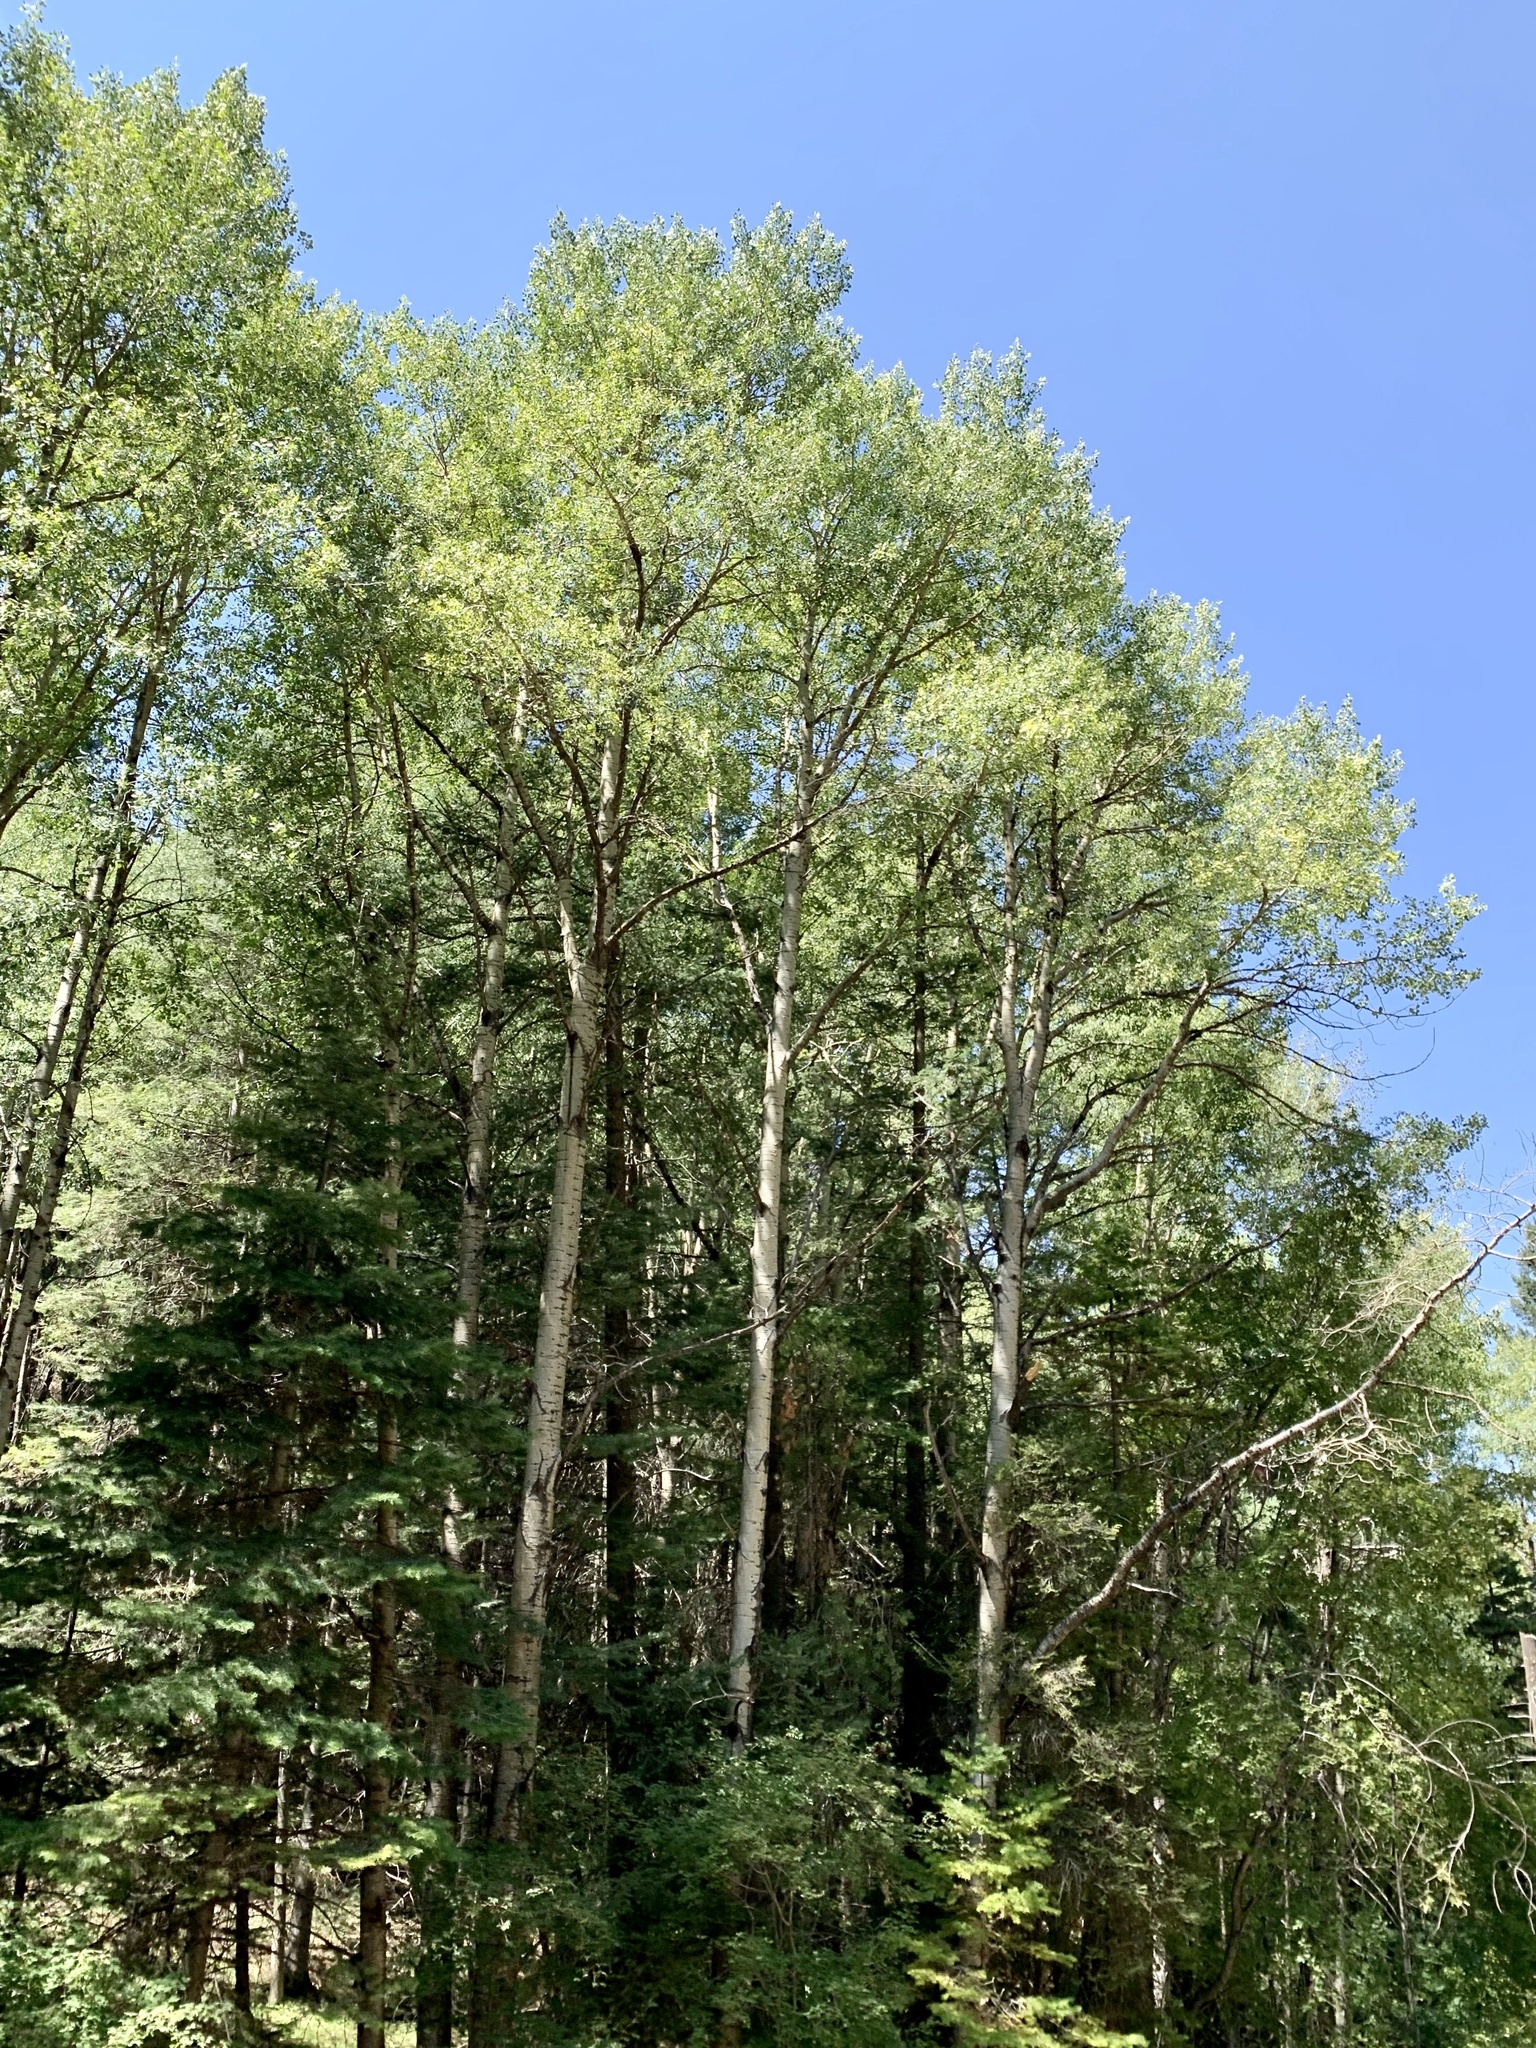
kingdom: Plantae
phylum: Tracheophyta
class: Magnoliopsida
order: Malpighiales
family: Salicaceae
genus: Populus
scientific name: Populus tremuloides
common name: Quaking aspen
